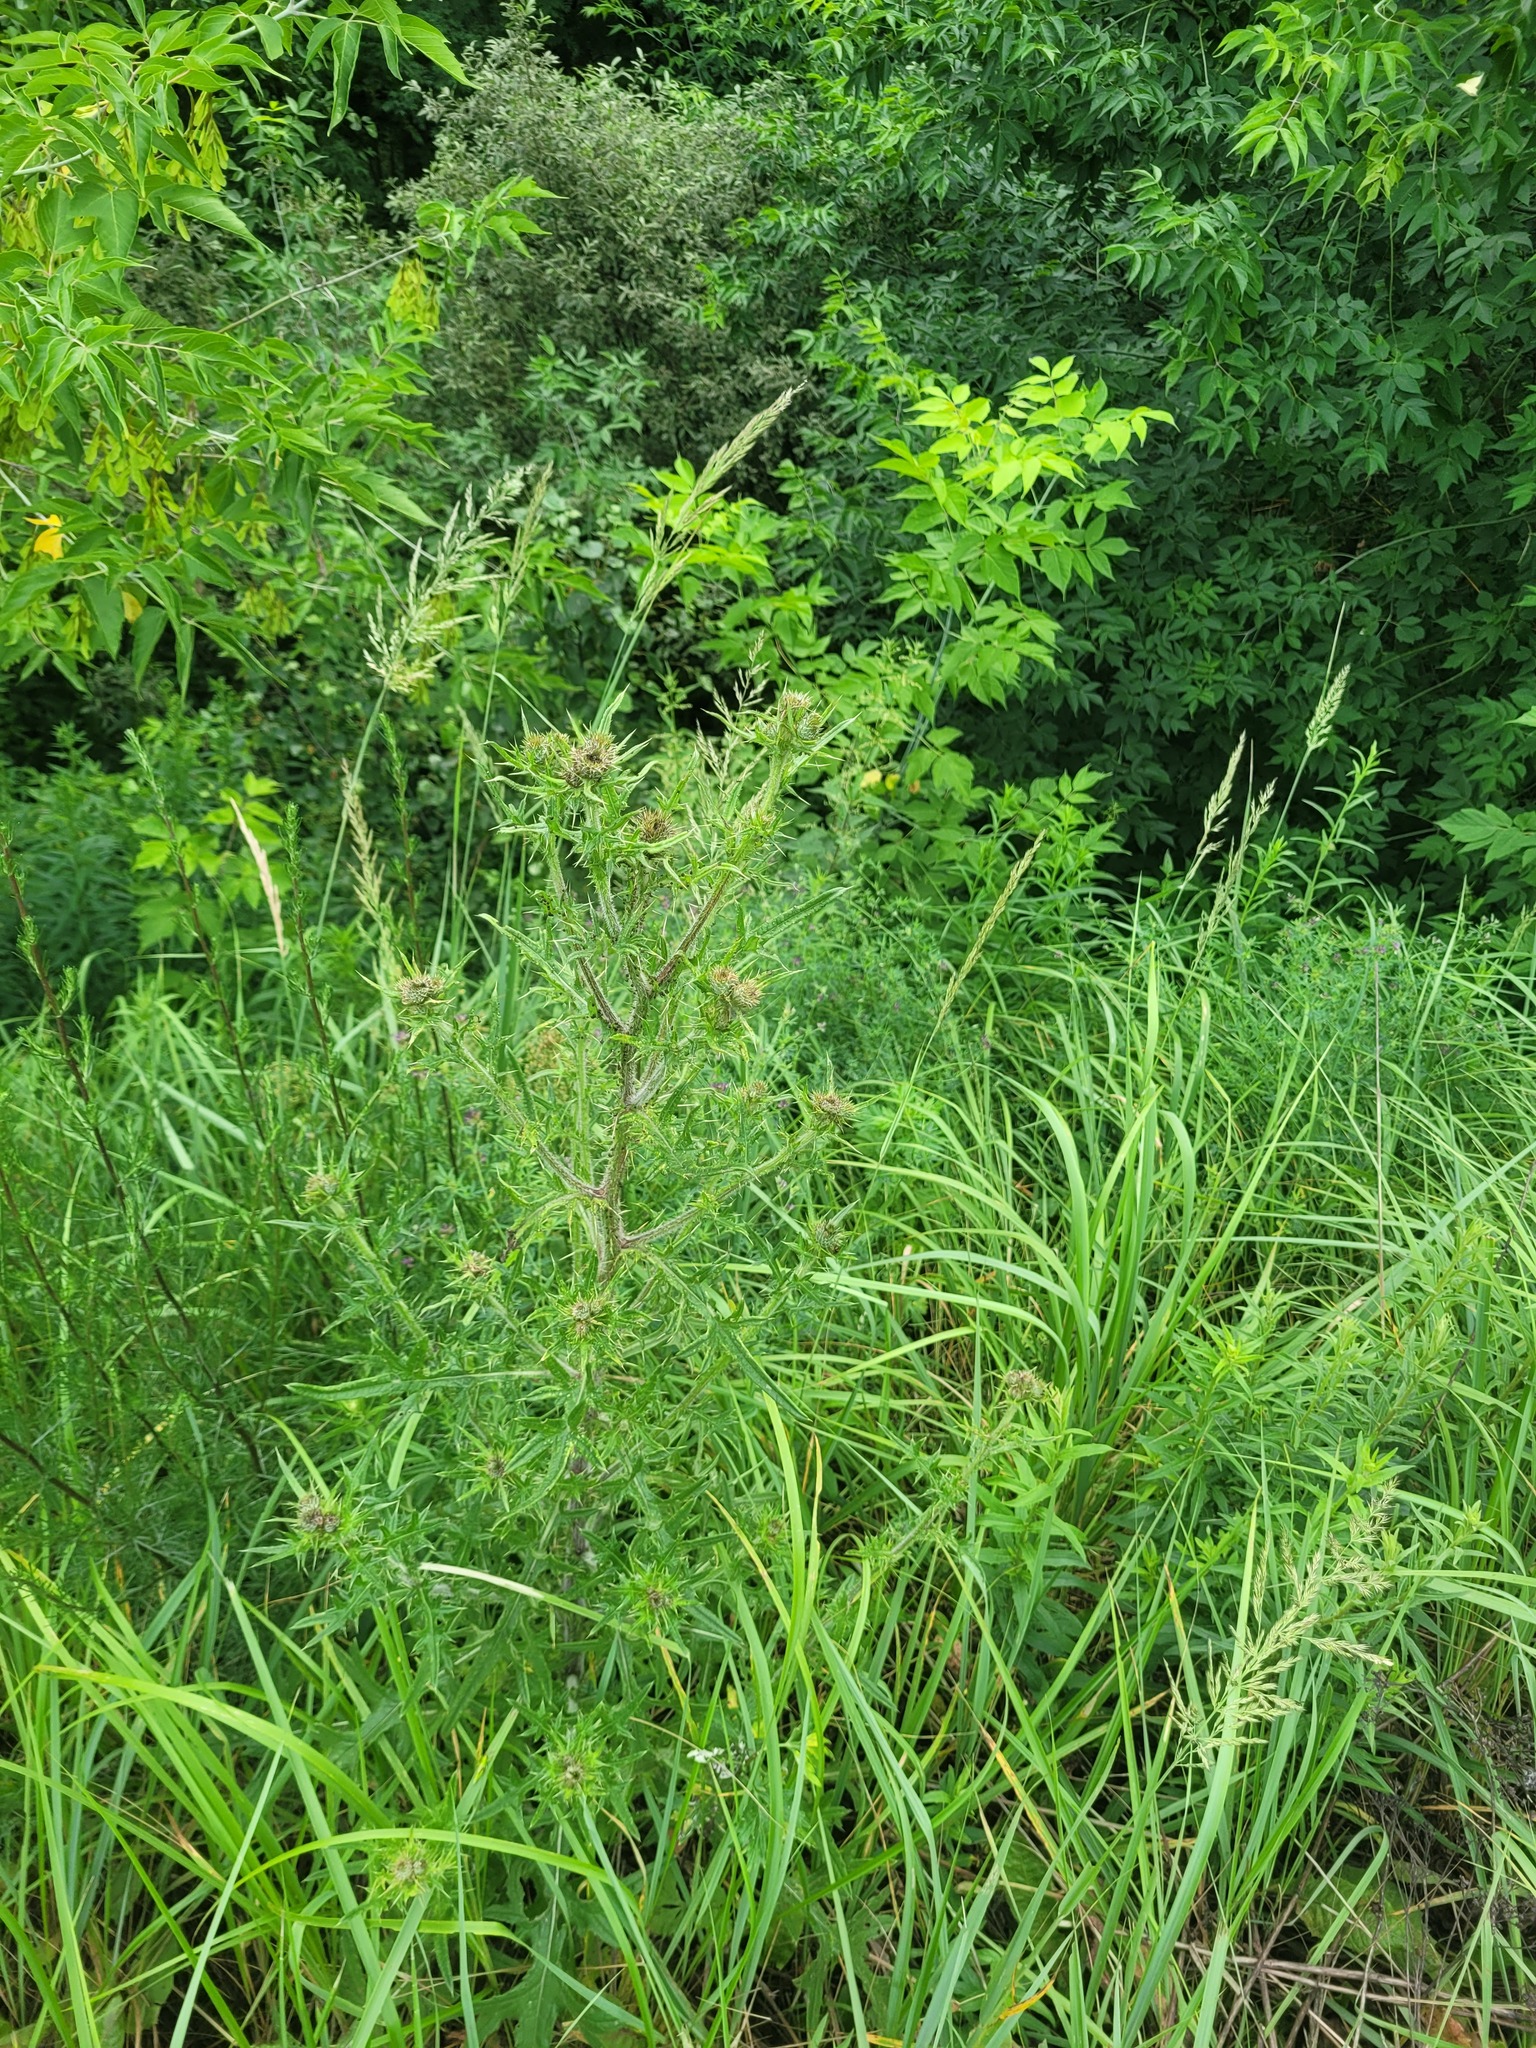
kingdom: Plantae
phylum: Tracheophyta
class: Magnoliopsida
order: Asterales
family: Asteraceae
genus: Cirsium
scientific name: Cirsium vulgare
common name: Bull thistle
